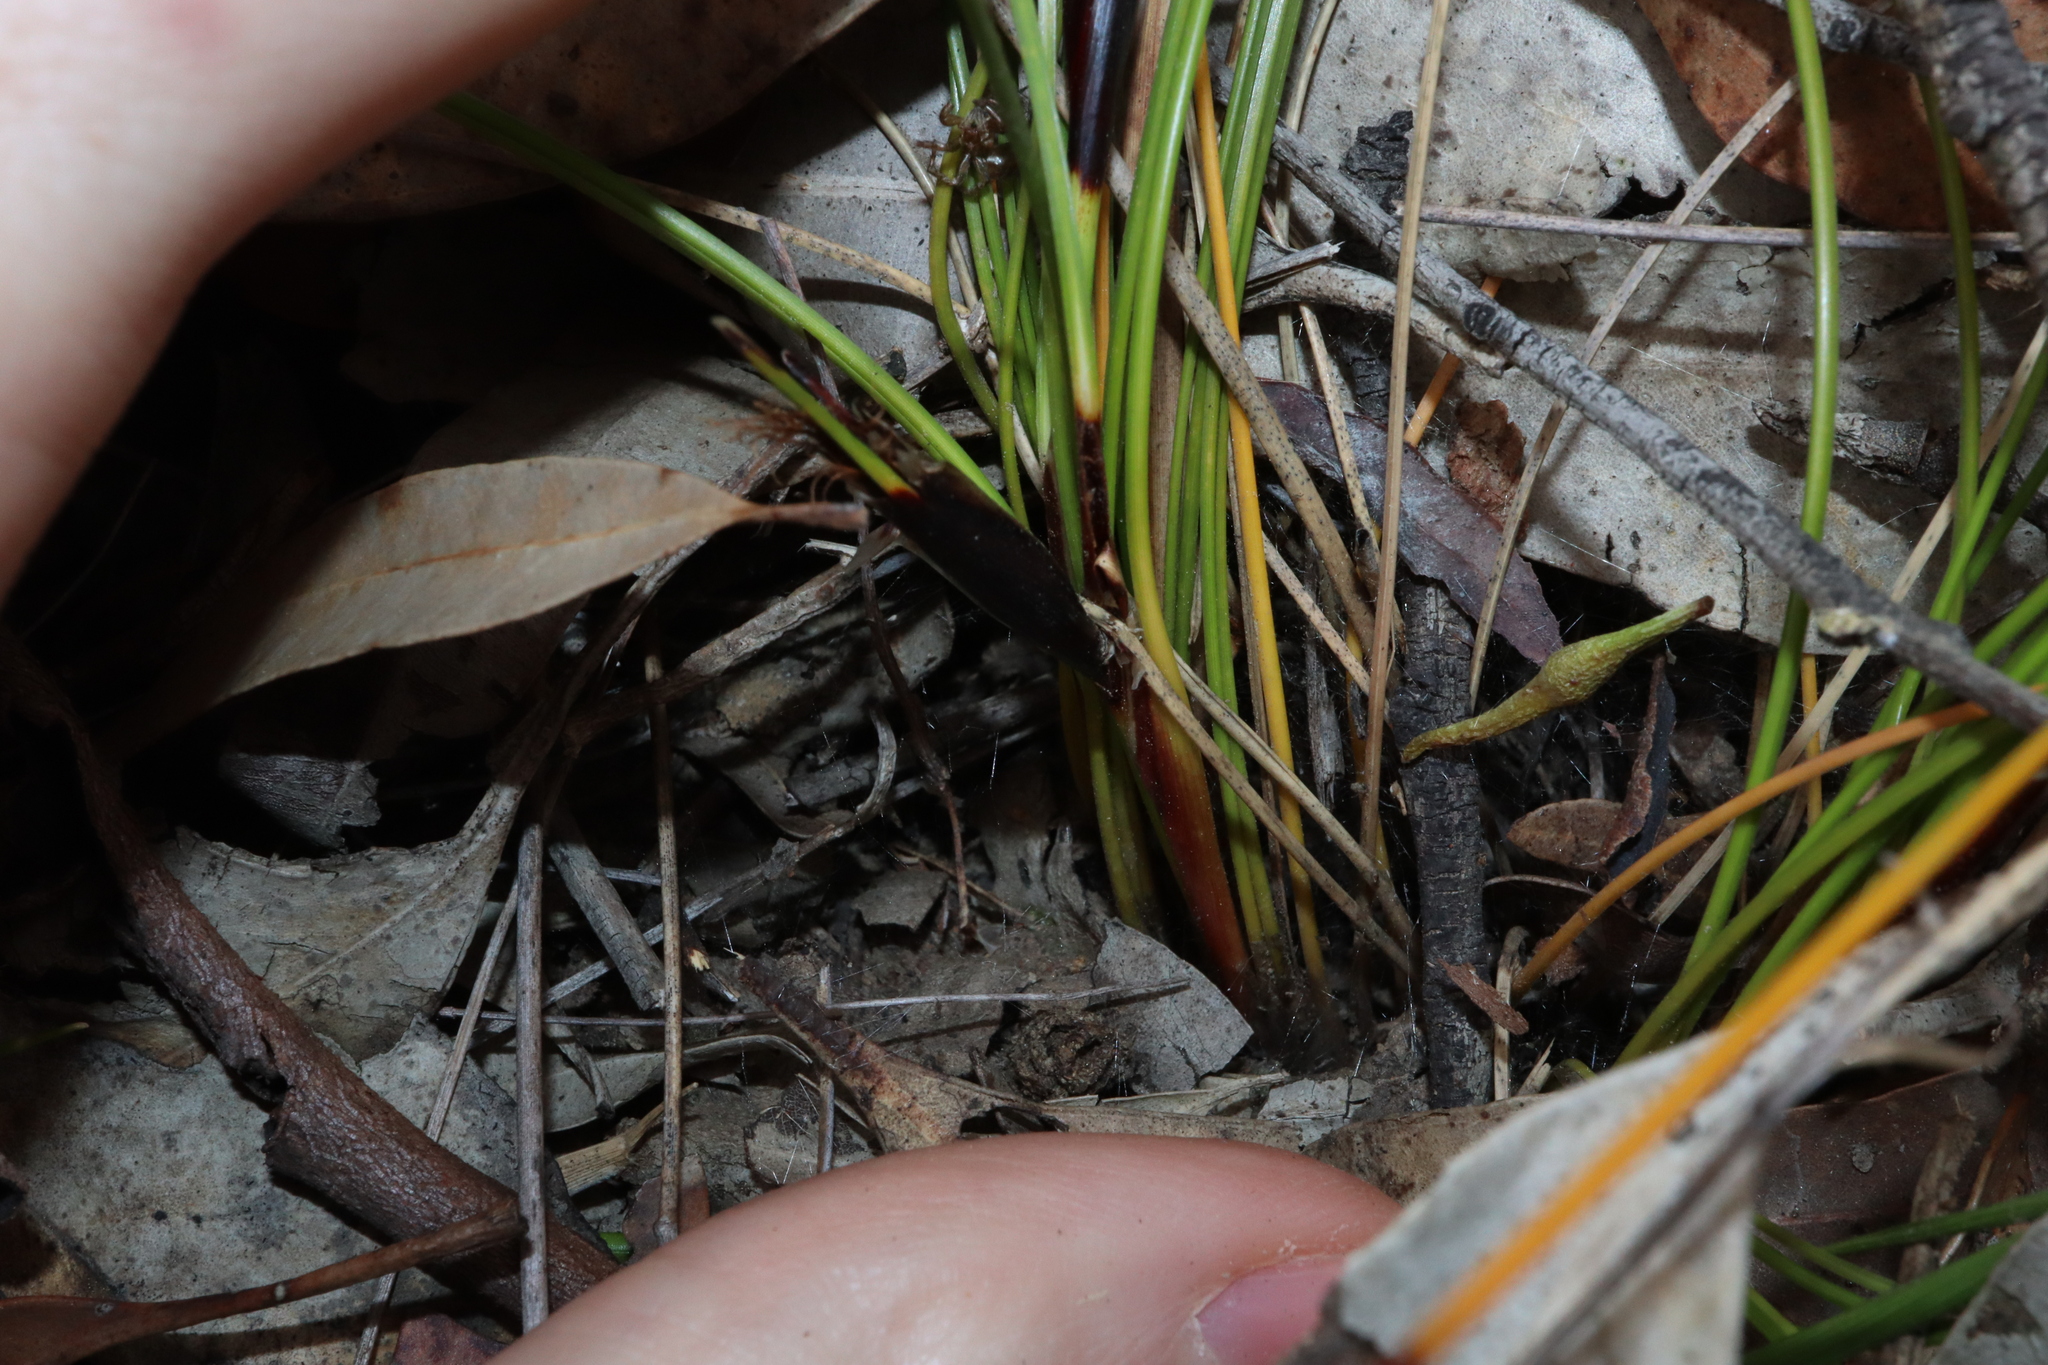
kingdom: Plantae
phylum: Tracheophyta
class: Liliopsida
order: Poales
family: Cyperaceae
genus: Ptilothrix
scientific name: Ptilothrix deusta
